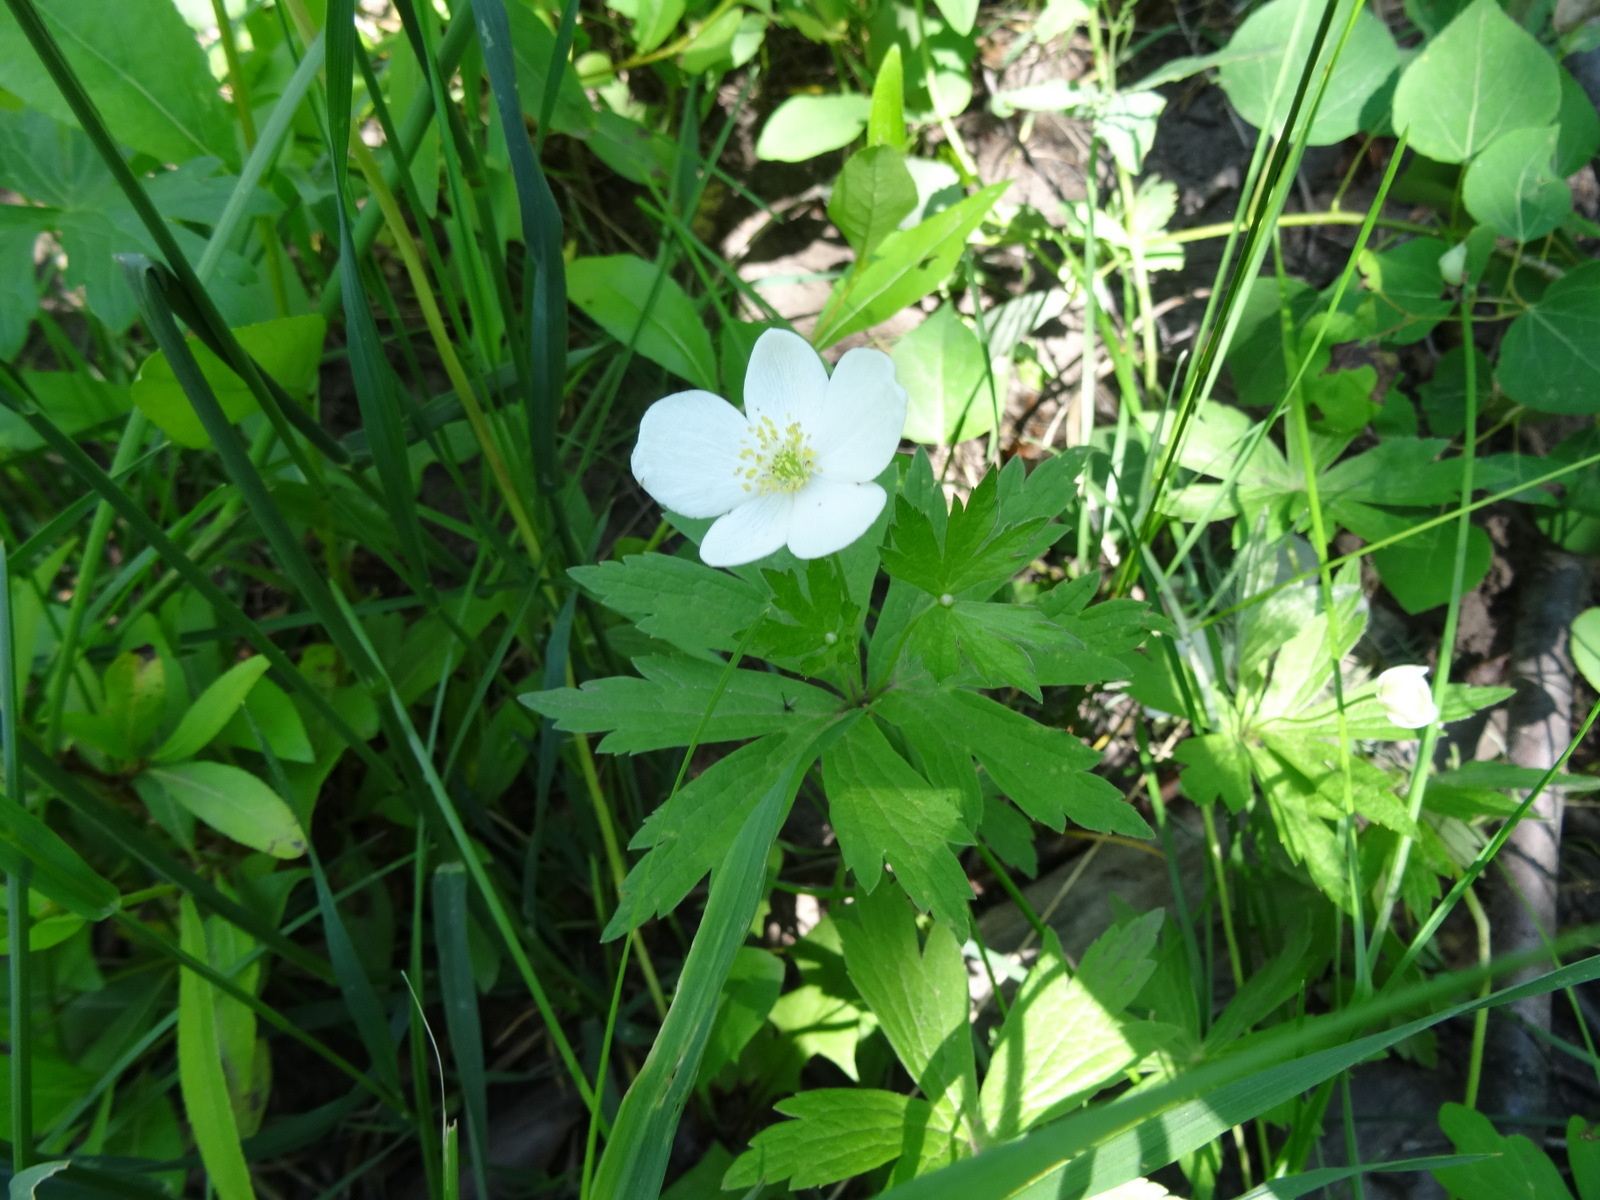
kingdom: Plantae
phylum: Tracheophyta
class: Magnoliopsida
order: Ranunculales
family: Ranunculaceae
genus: Anemonastrum
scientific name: Anemonastrum canadense
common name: Canada anemone
